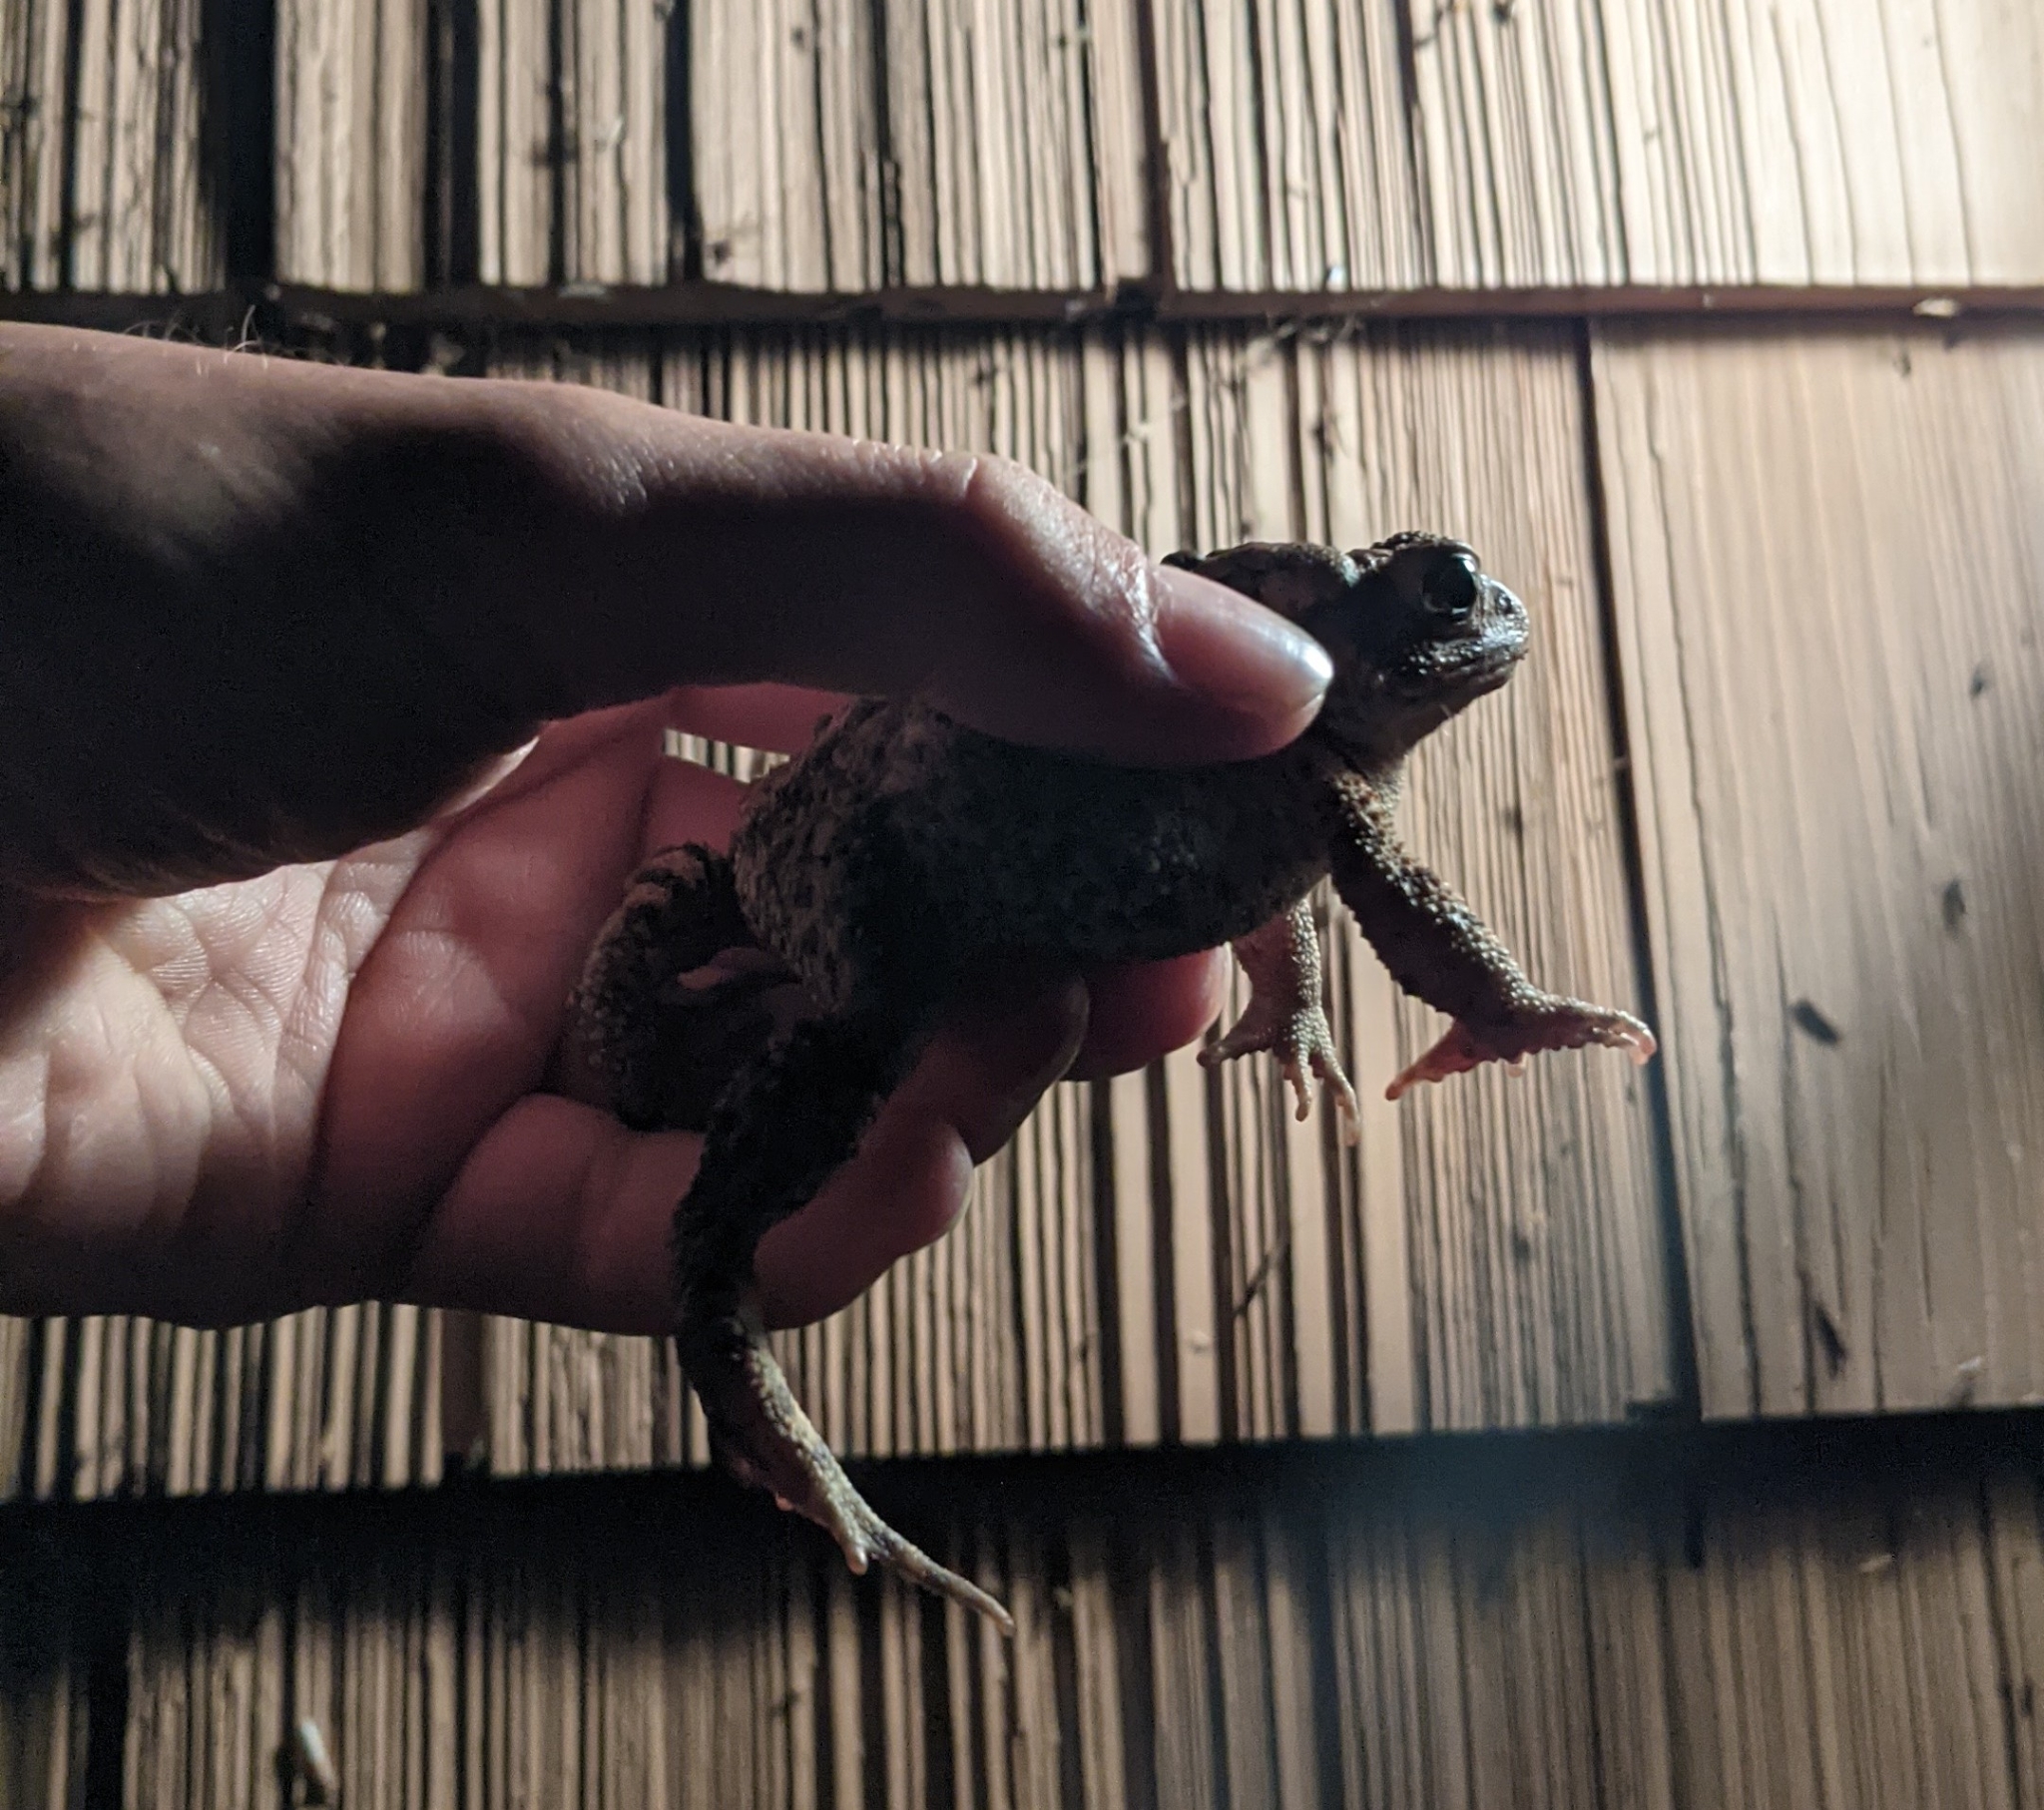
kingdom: Animalia
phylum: Chordata
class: Amphibia
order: Anura
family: Bufonidae
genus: Anaxyrus
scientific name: Anaxyrus americanus
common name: American toad
